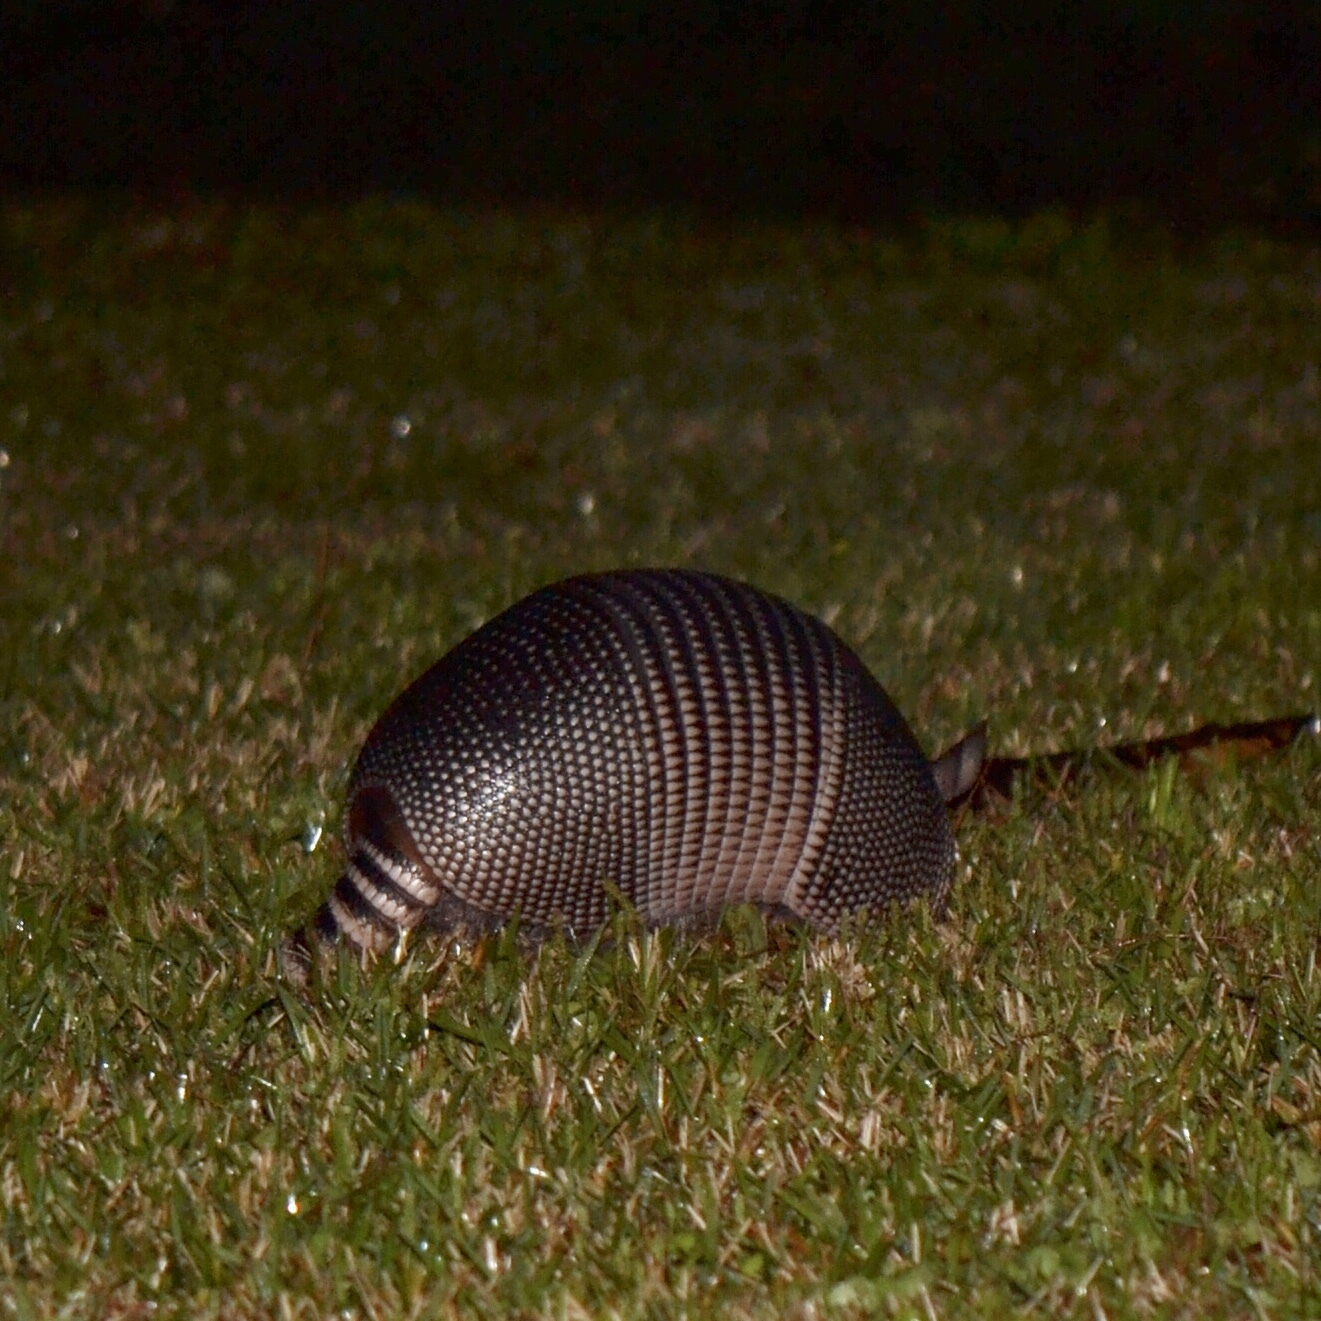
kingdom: Animalia
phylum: Chordata
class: Mammalia
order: Cingulata
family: Dasypodidae
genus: Dasypus
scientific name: Dasypus novemcinctus
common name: Nine-banded armadillo
